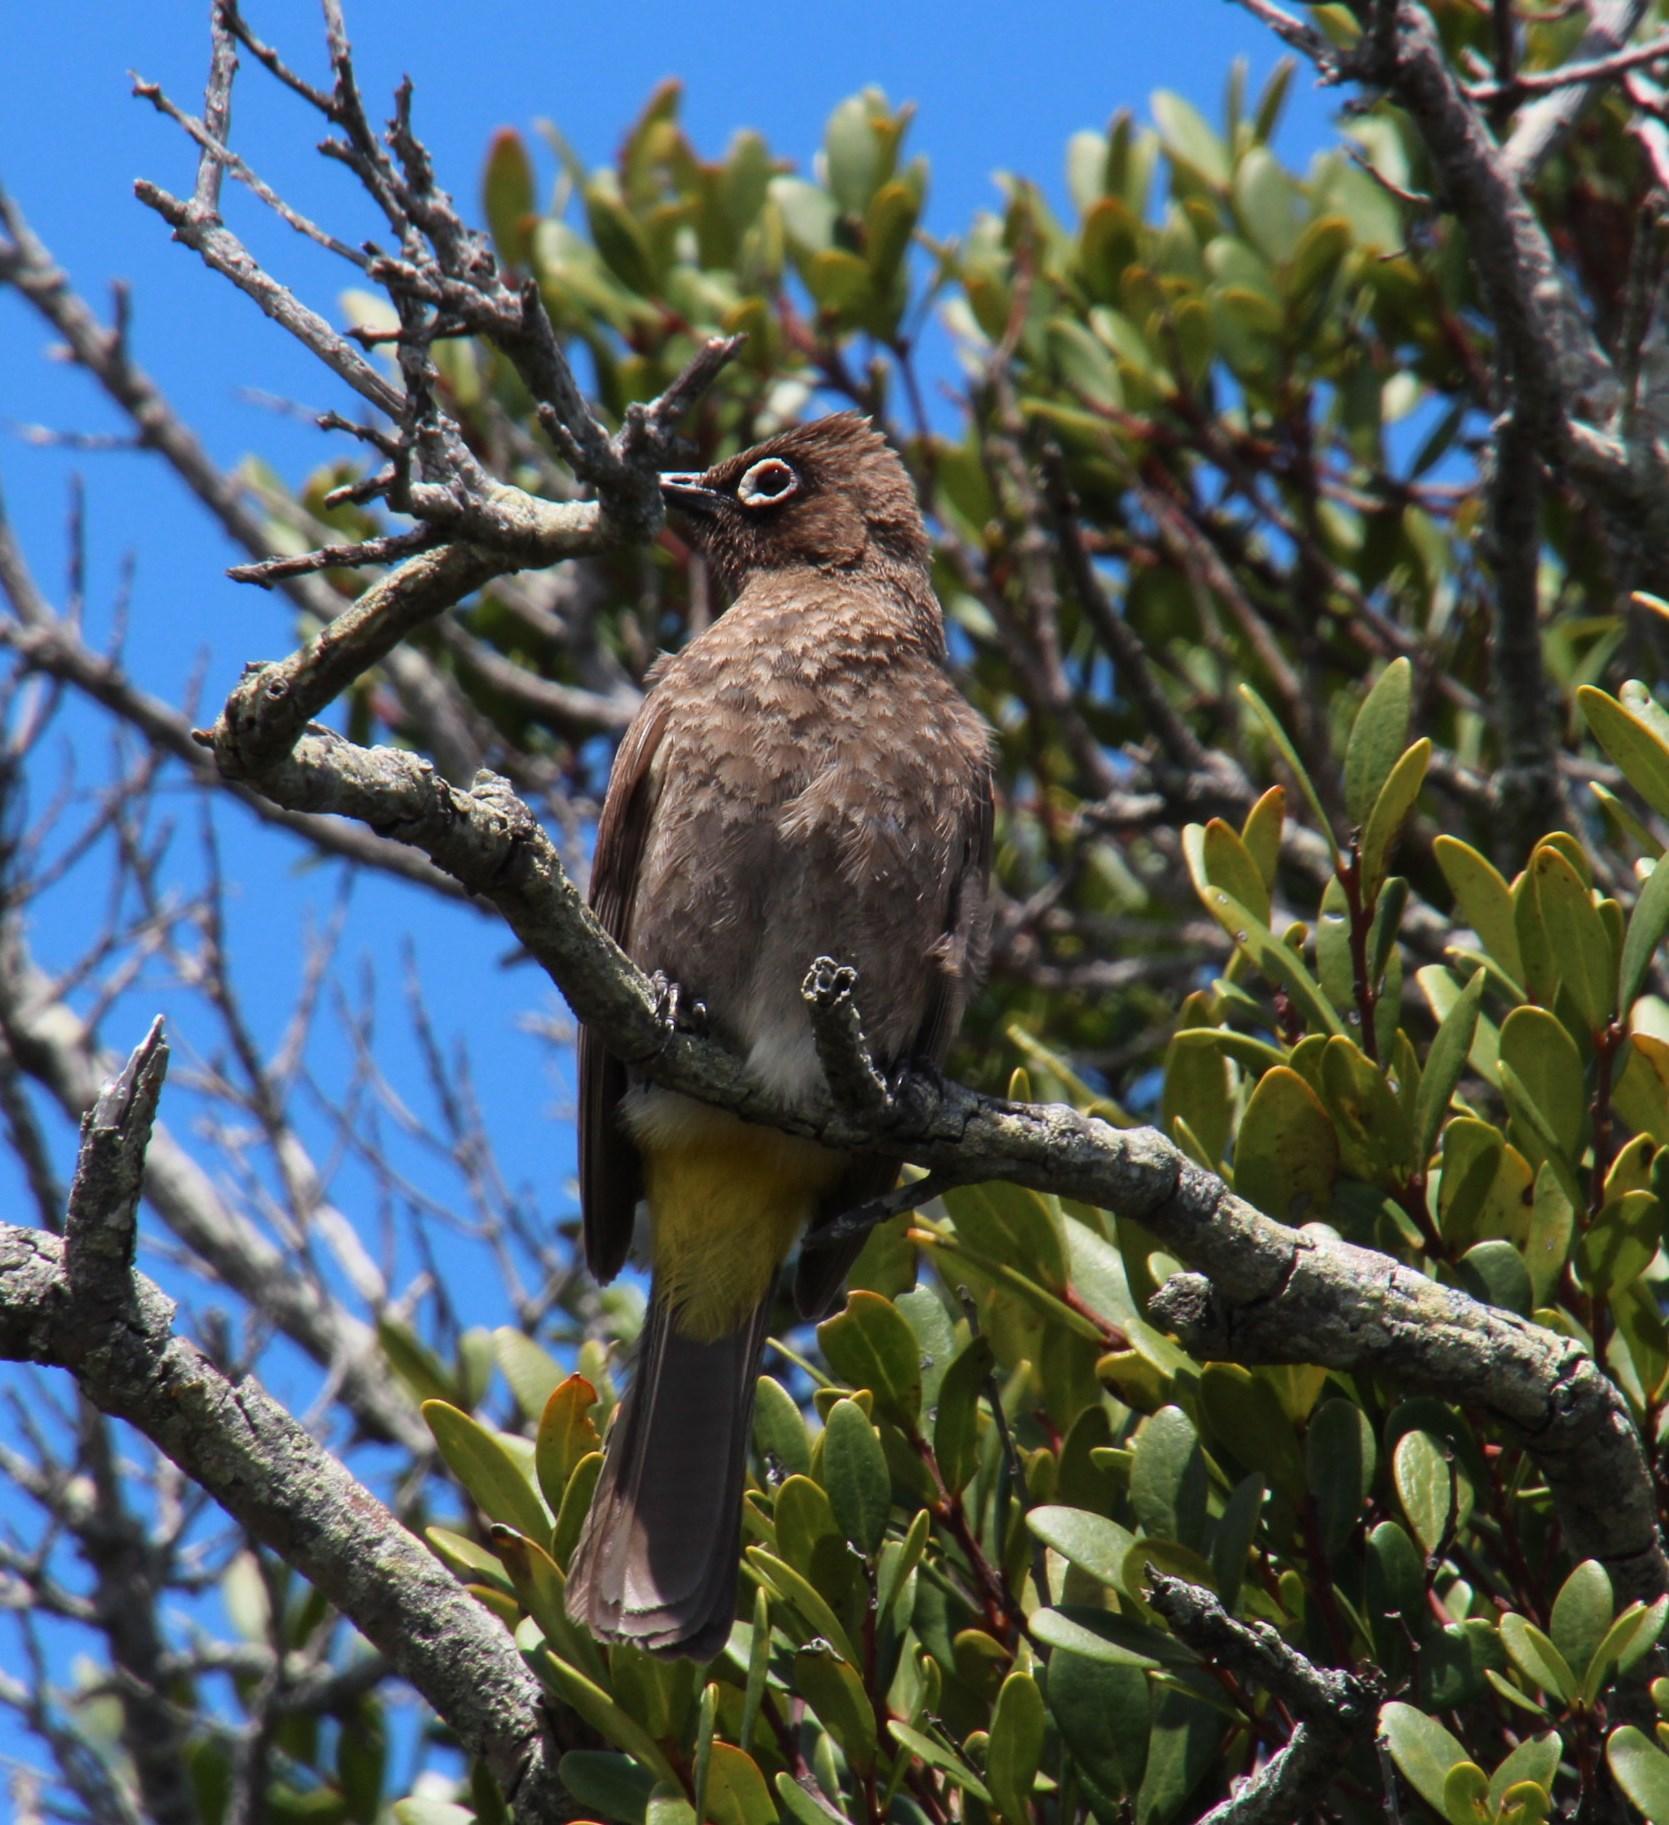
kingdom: Animalia
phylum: Chordata
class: Aves
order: Passeriformes
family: Pycnonotidae
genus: Pycnonotus
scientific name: Pycnonotus capensis
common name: Cape bulbul
